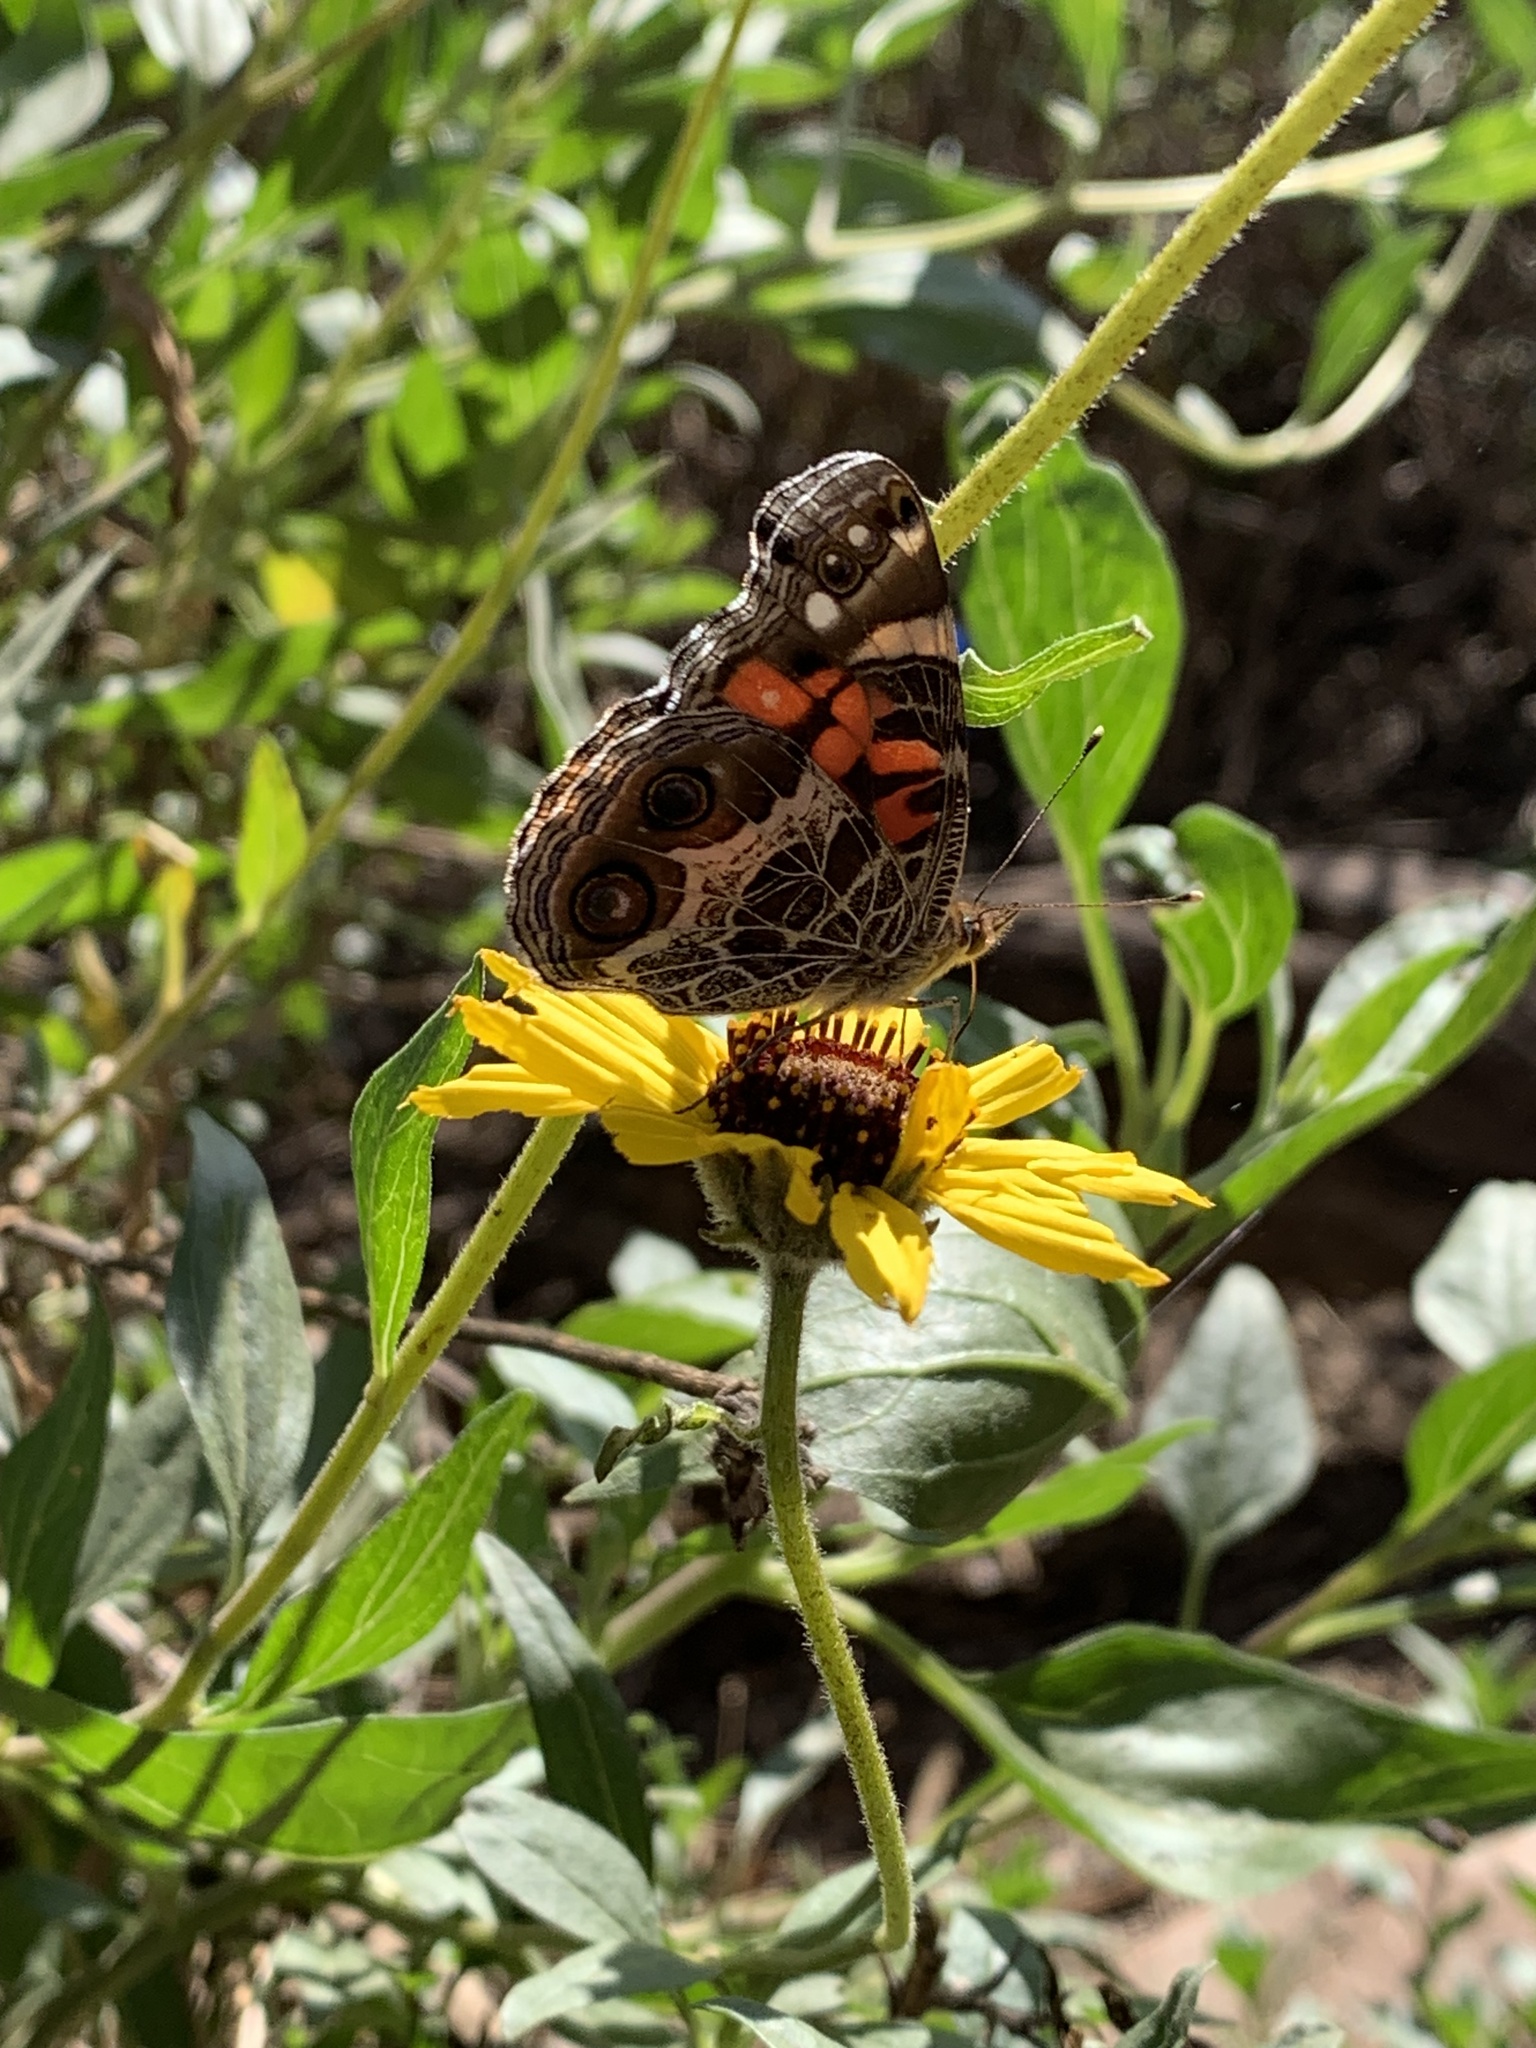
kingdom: Animalia
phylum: Arthropoda
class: Insecta
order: Lepidoptera
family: Nymphalidae
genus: Vanessa
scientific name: Vanessa virginiensis
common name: American lady
